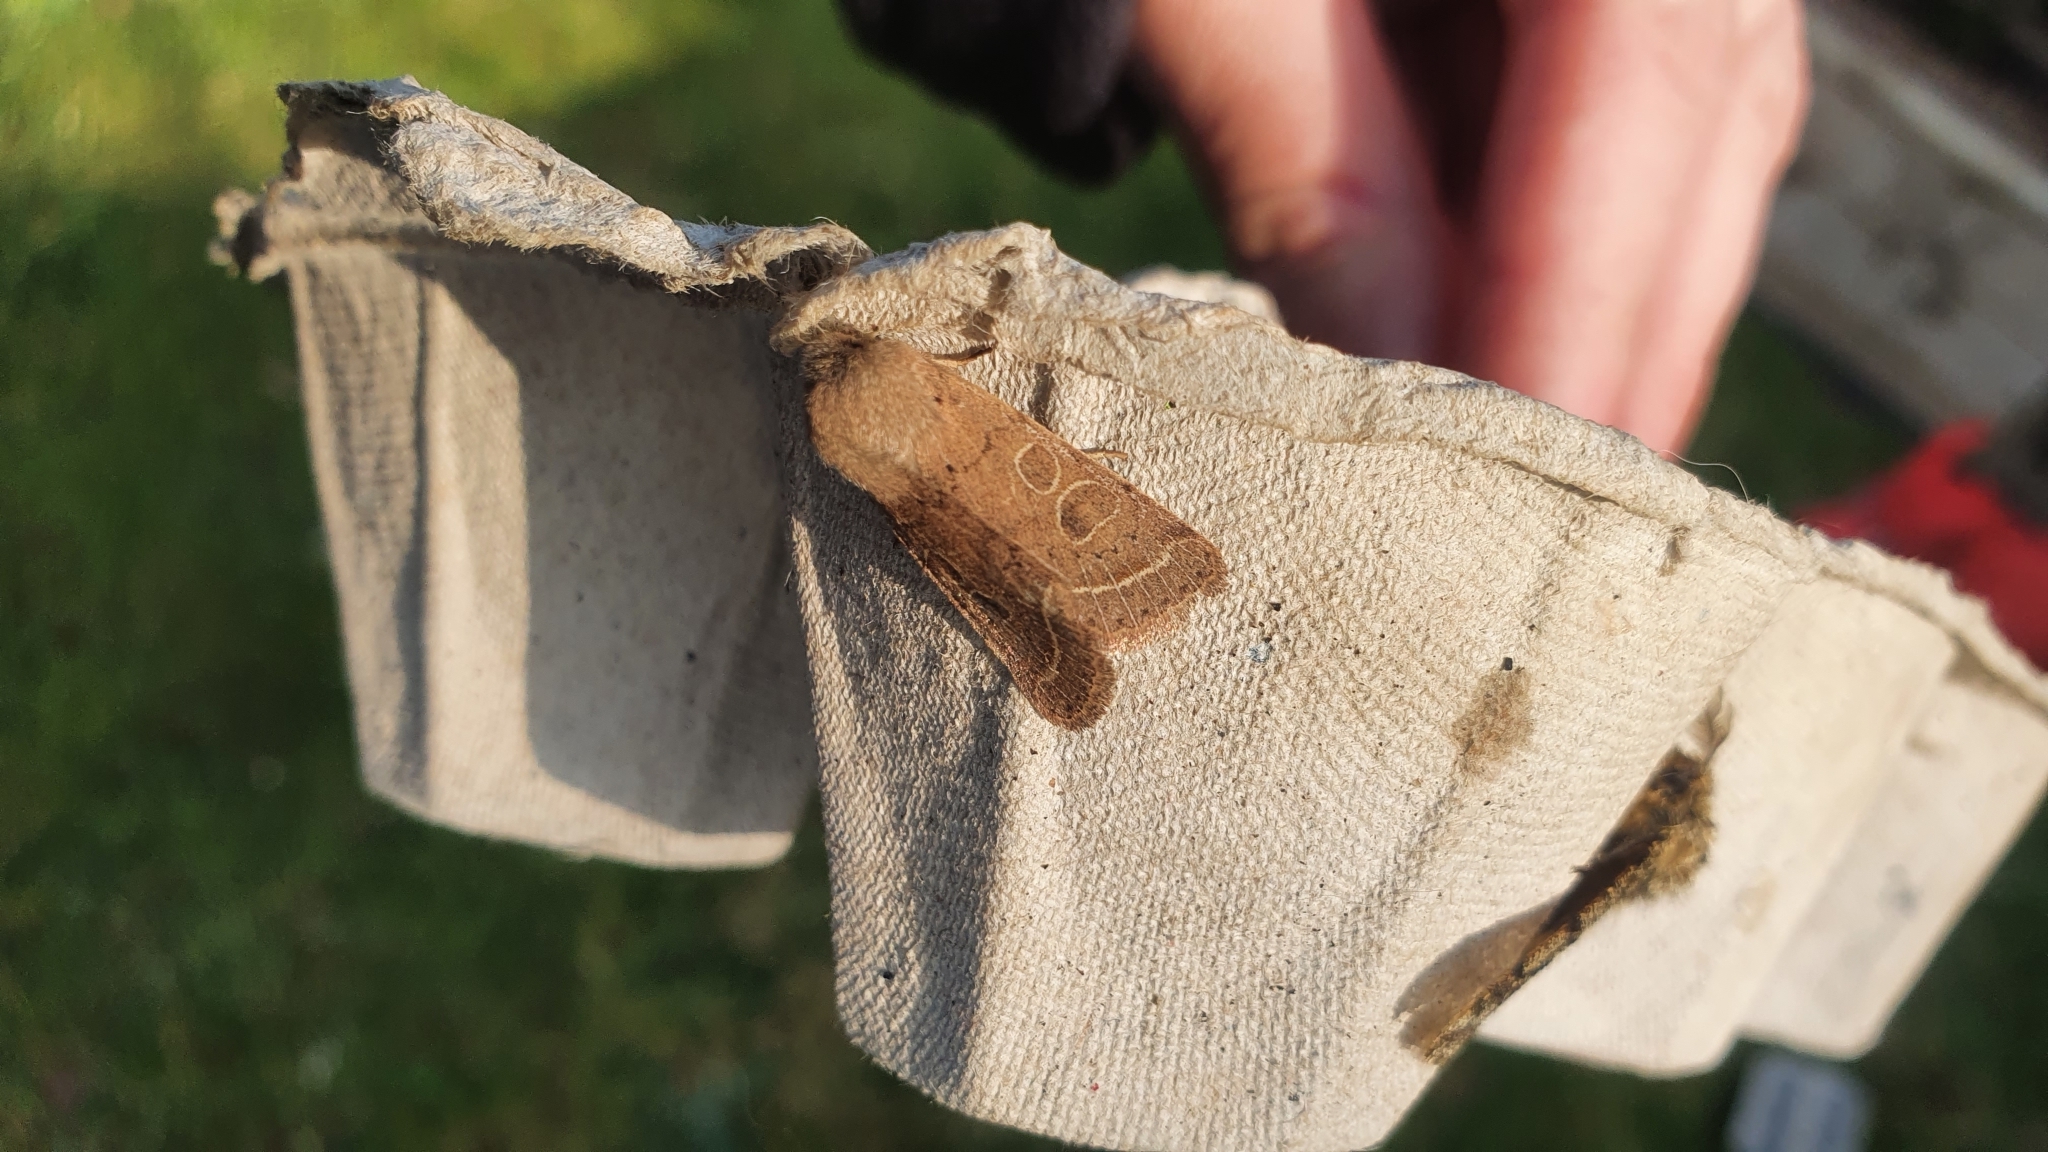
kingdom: Animalia
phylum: Arthropoda
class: Insecta
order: Lepidoptera
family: Noctuidae
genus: Orthosia
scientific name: Orthosia cerasi
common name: Common quaker
